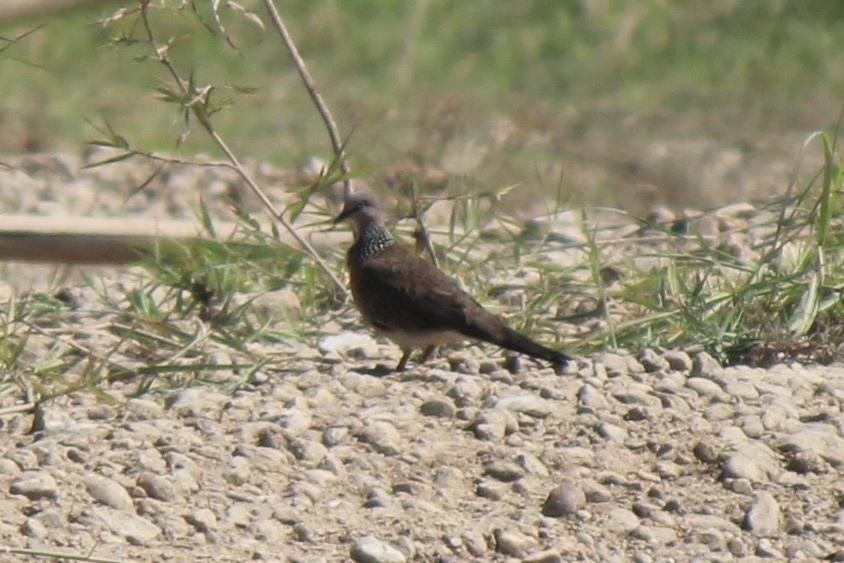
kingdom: Animalia
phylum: Chordata
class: Aves
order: Columbiformes
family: Columbidae
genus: Spilopelia
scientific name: Spilopelia chinensis
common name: Spotted dove
